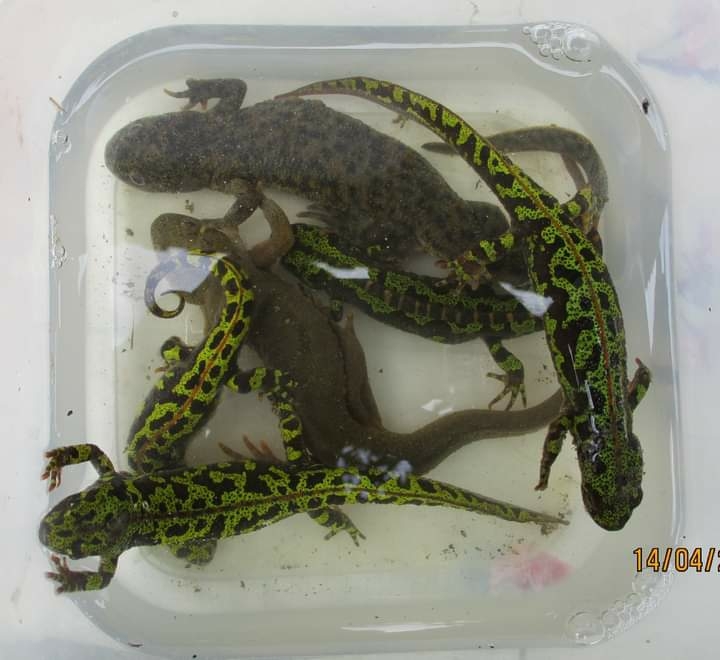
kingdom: Animalia
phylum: Chordata
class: Amphibia
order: Caudata
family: Salamandridae
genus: Triturus
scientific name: Triturus marmoratus
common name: Marbled newt
